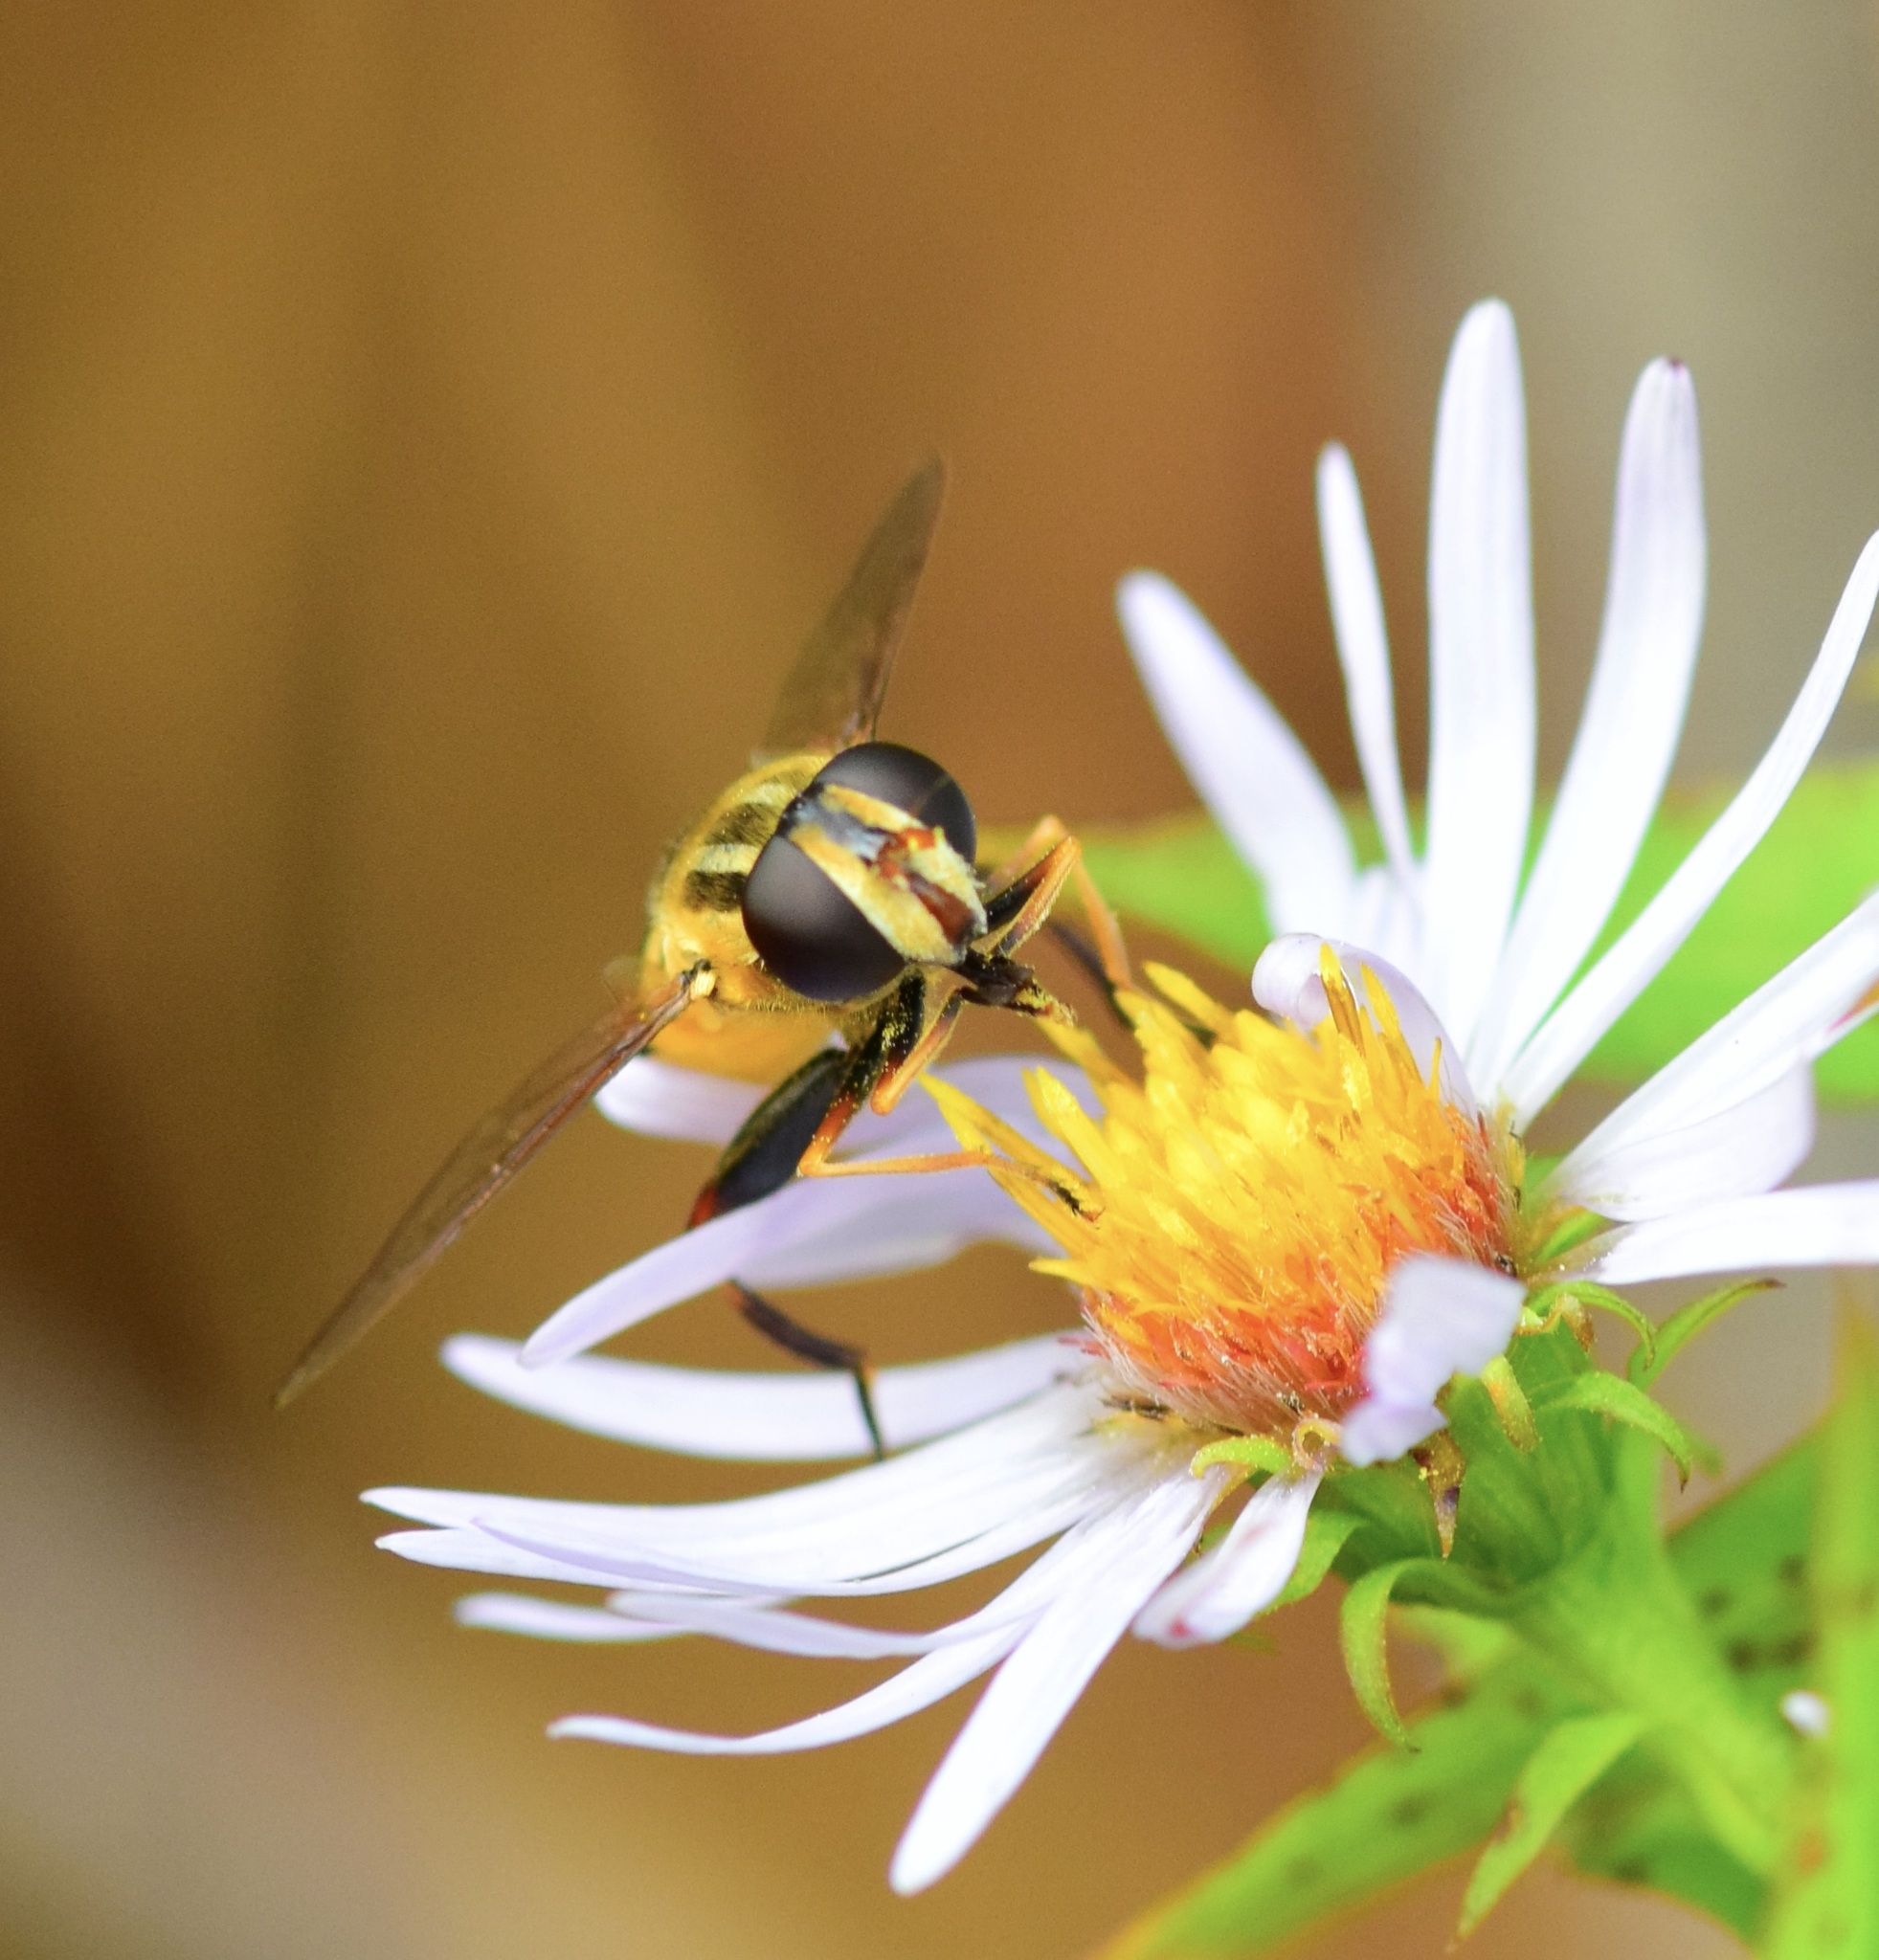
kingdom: Animalia
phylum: Arthropoda
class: Insecta
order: Diptera
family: Syrphidae
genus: Helophilus
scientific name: Helophilus fasciatus
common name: Narrow-headed marsh fly
